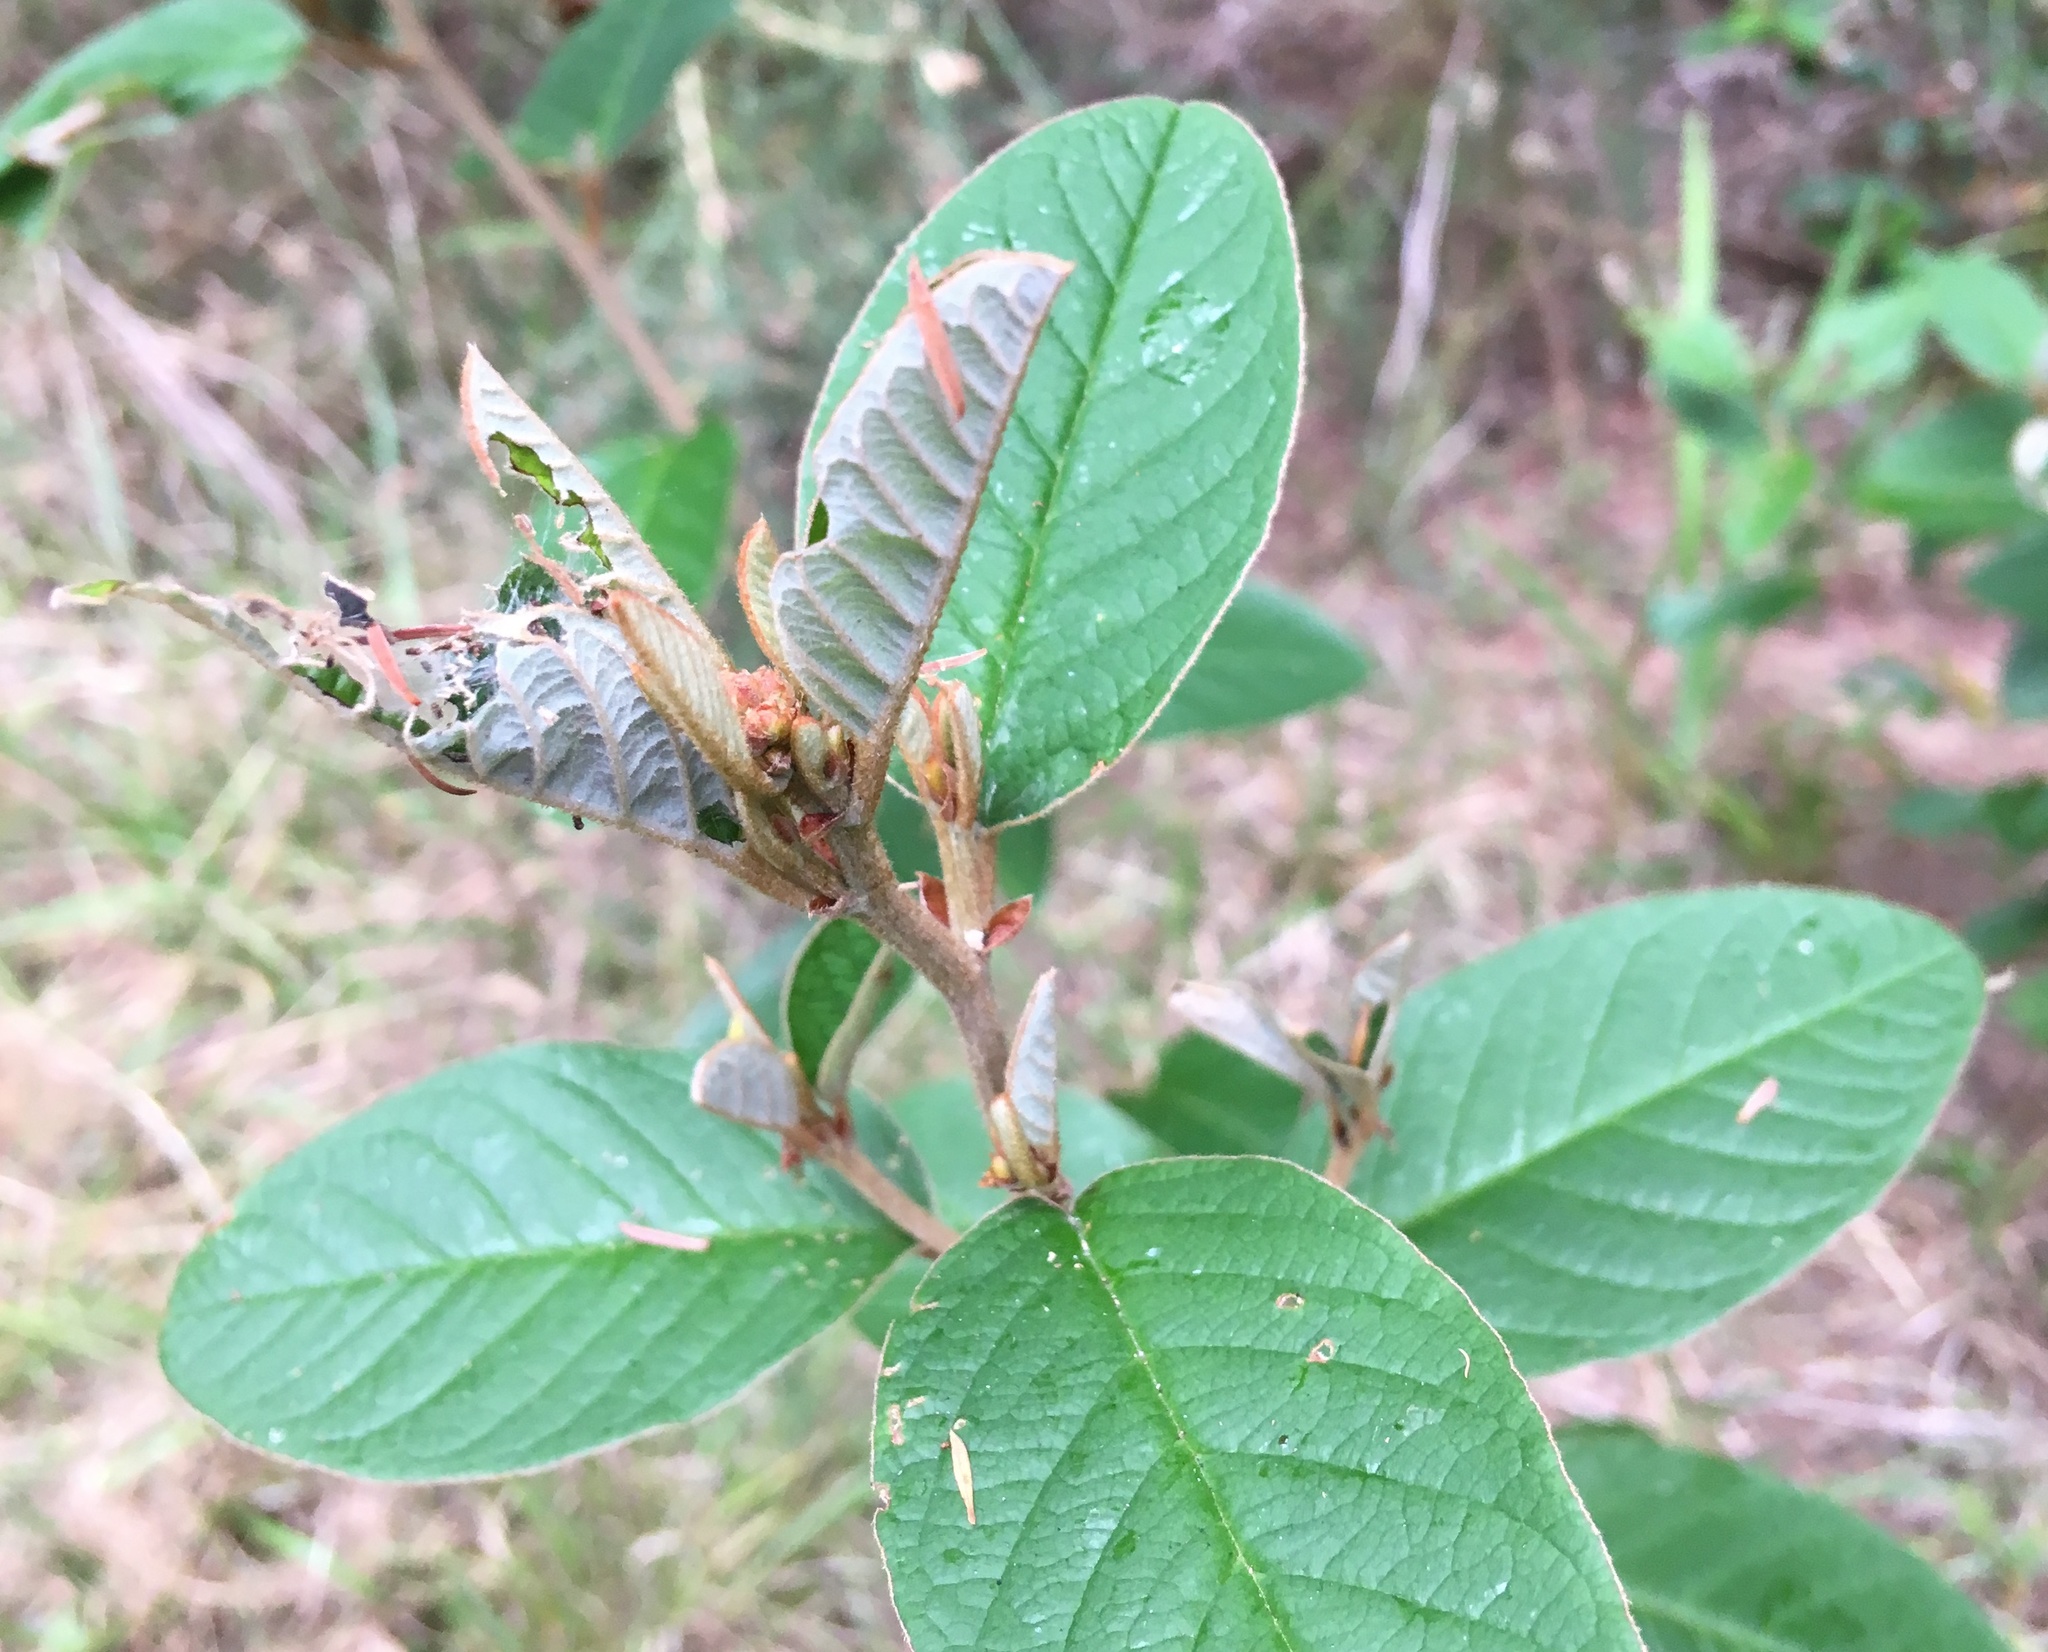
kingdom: Plantae
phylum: Tracheophyta
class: Magnoliopsida
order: Rosales
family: Rhamnaceae
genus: Pomaderris
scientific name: Pomaderris kumeraho
